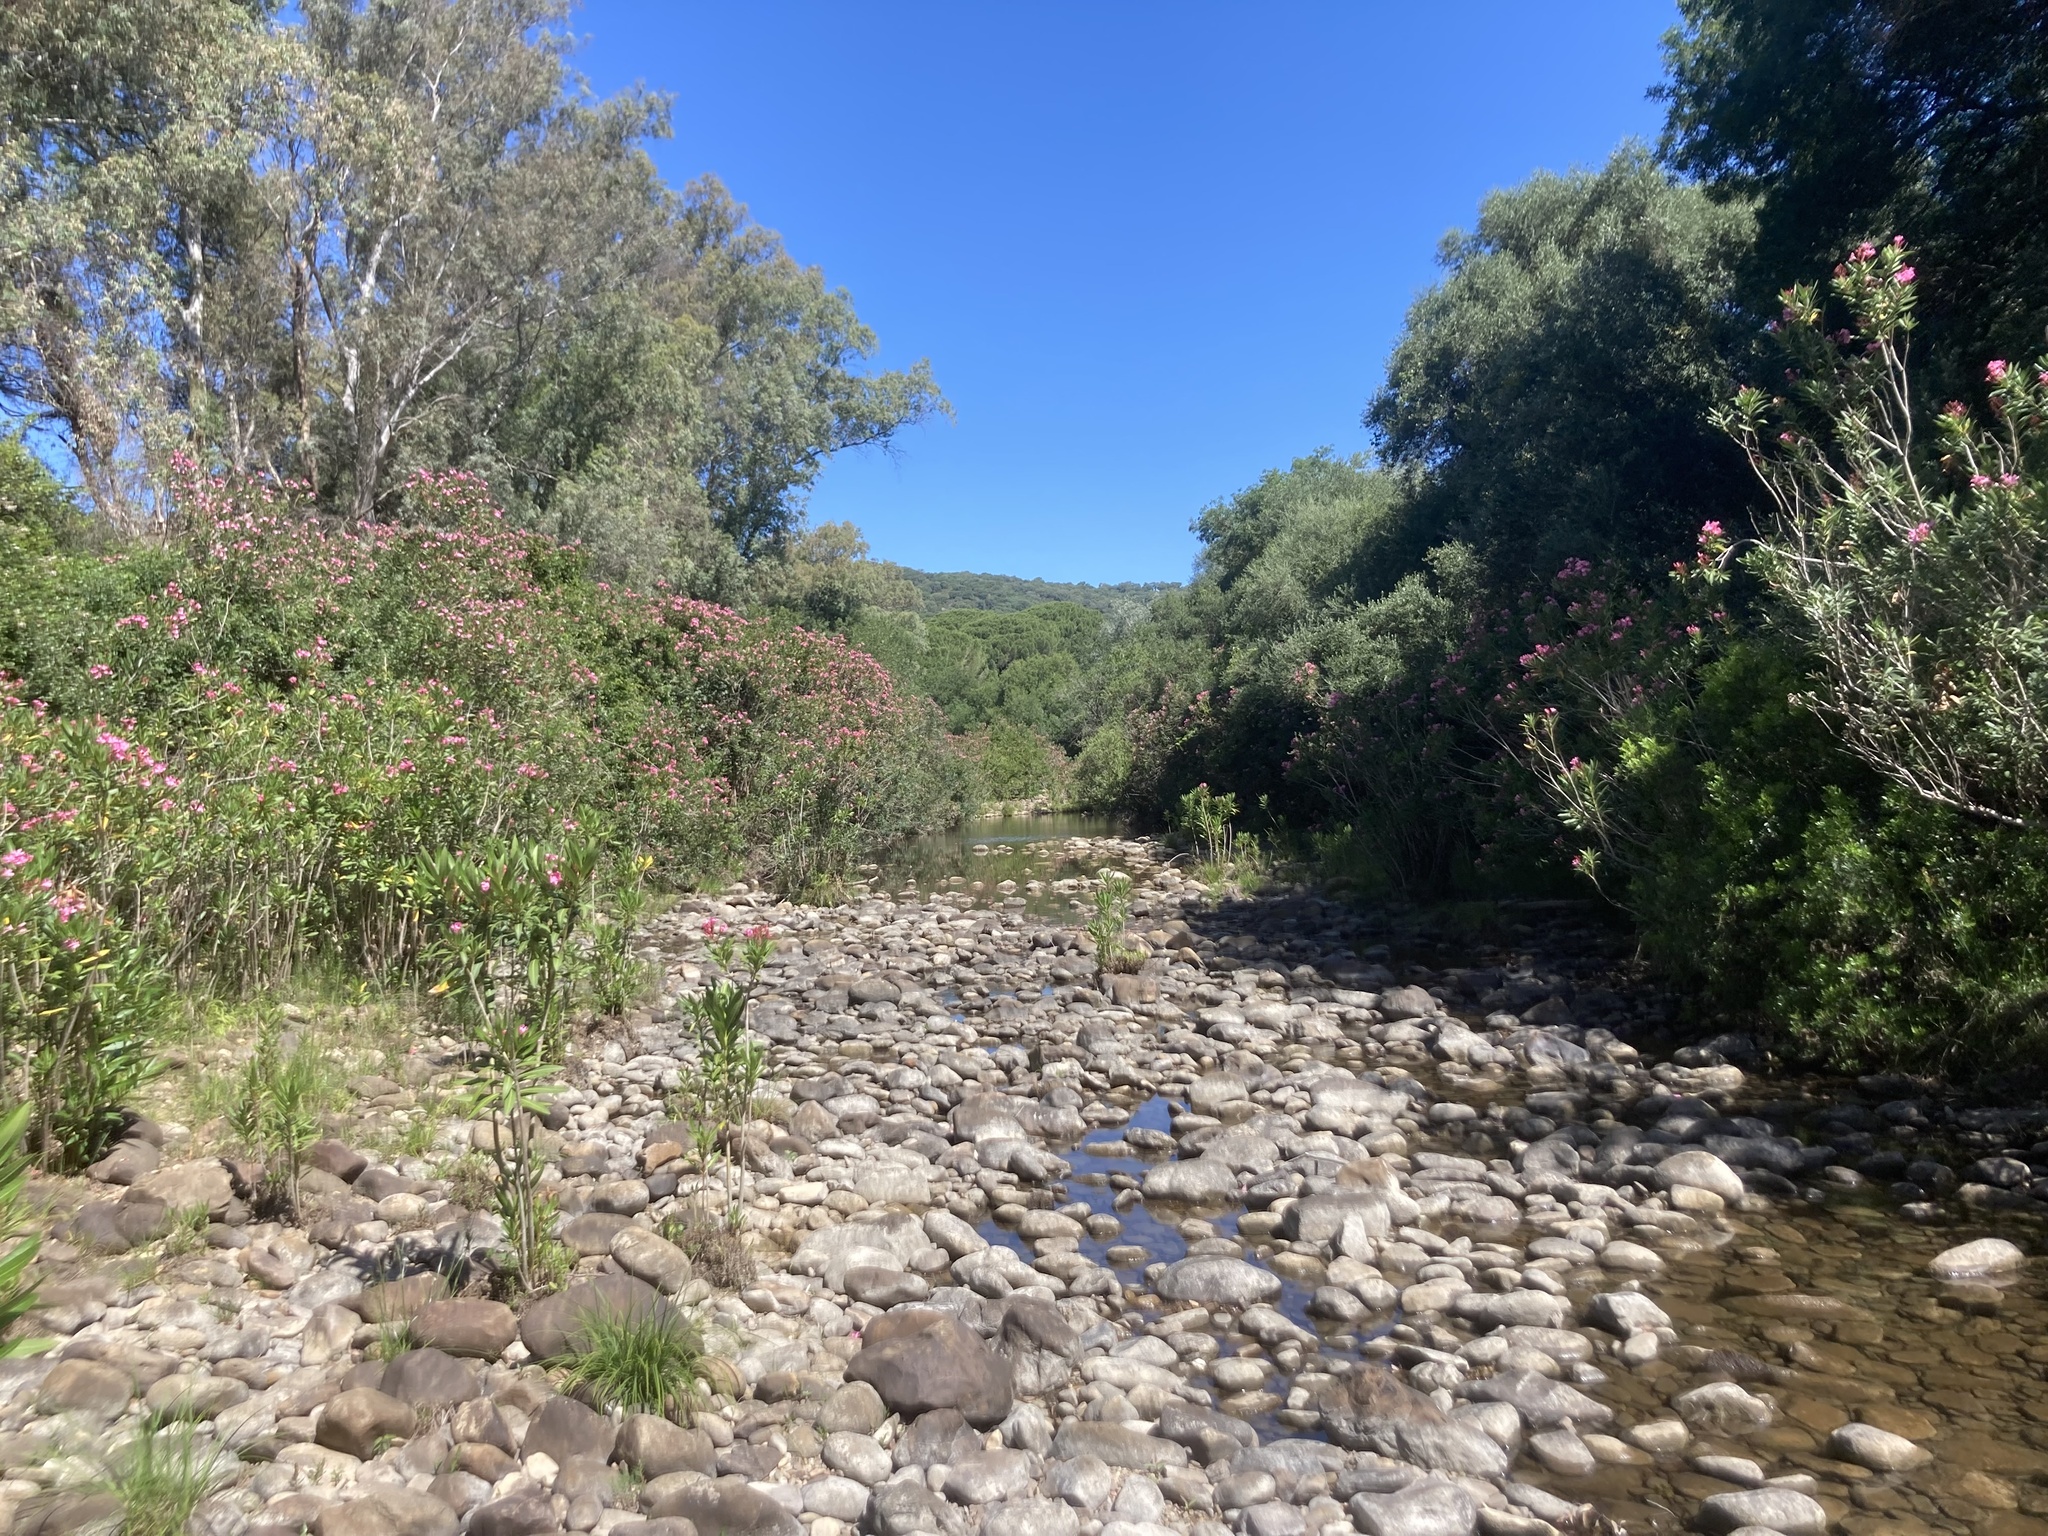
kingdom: Plantae
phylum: Tracheophyta
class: Magnoliopsida
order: Gentianales
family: Apocynaceae
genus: Nerium
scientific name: Nerium oleander
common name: Oleander
